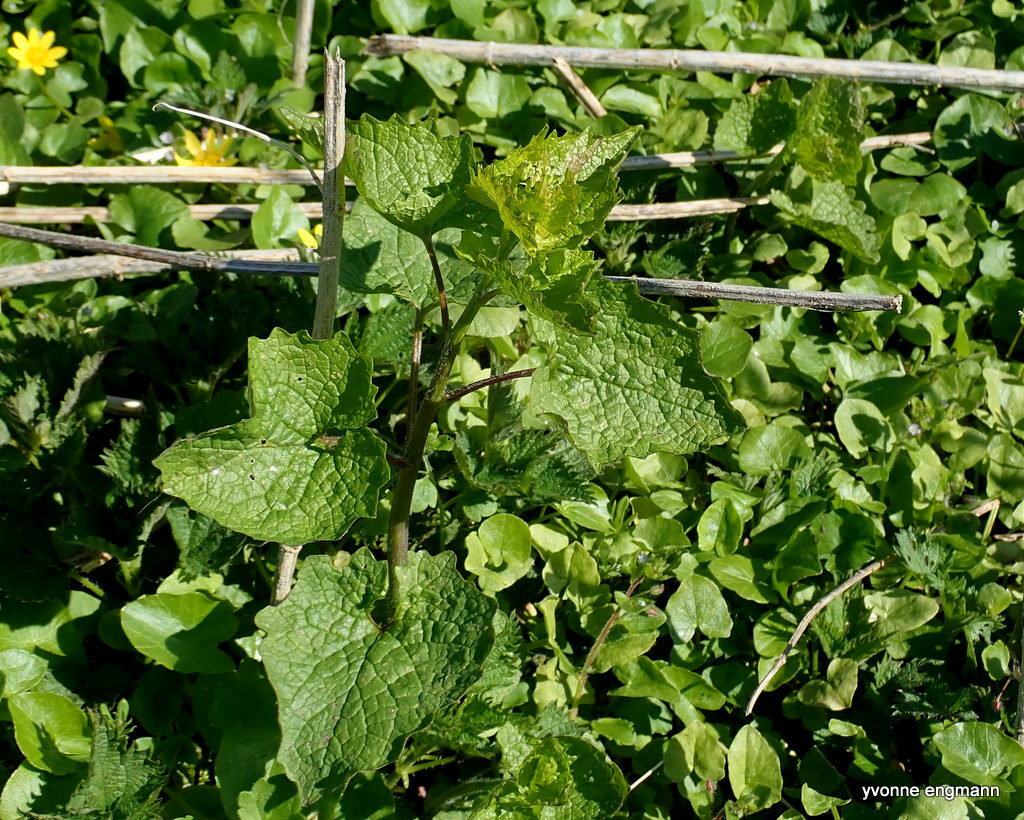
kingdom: Plantae
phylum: Tracheophyta
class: Magnoliopsida
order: Brassicales
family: Brassicaceae
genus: Alliaria
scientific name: Alliaria petiolata
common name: Garlic mustard
